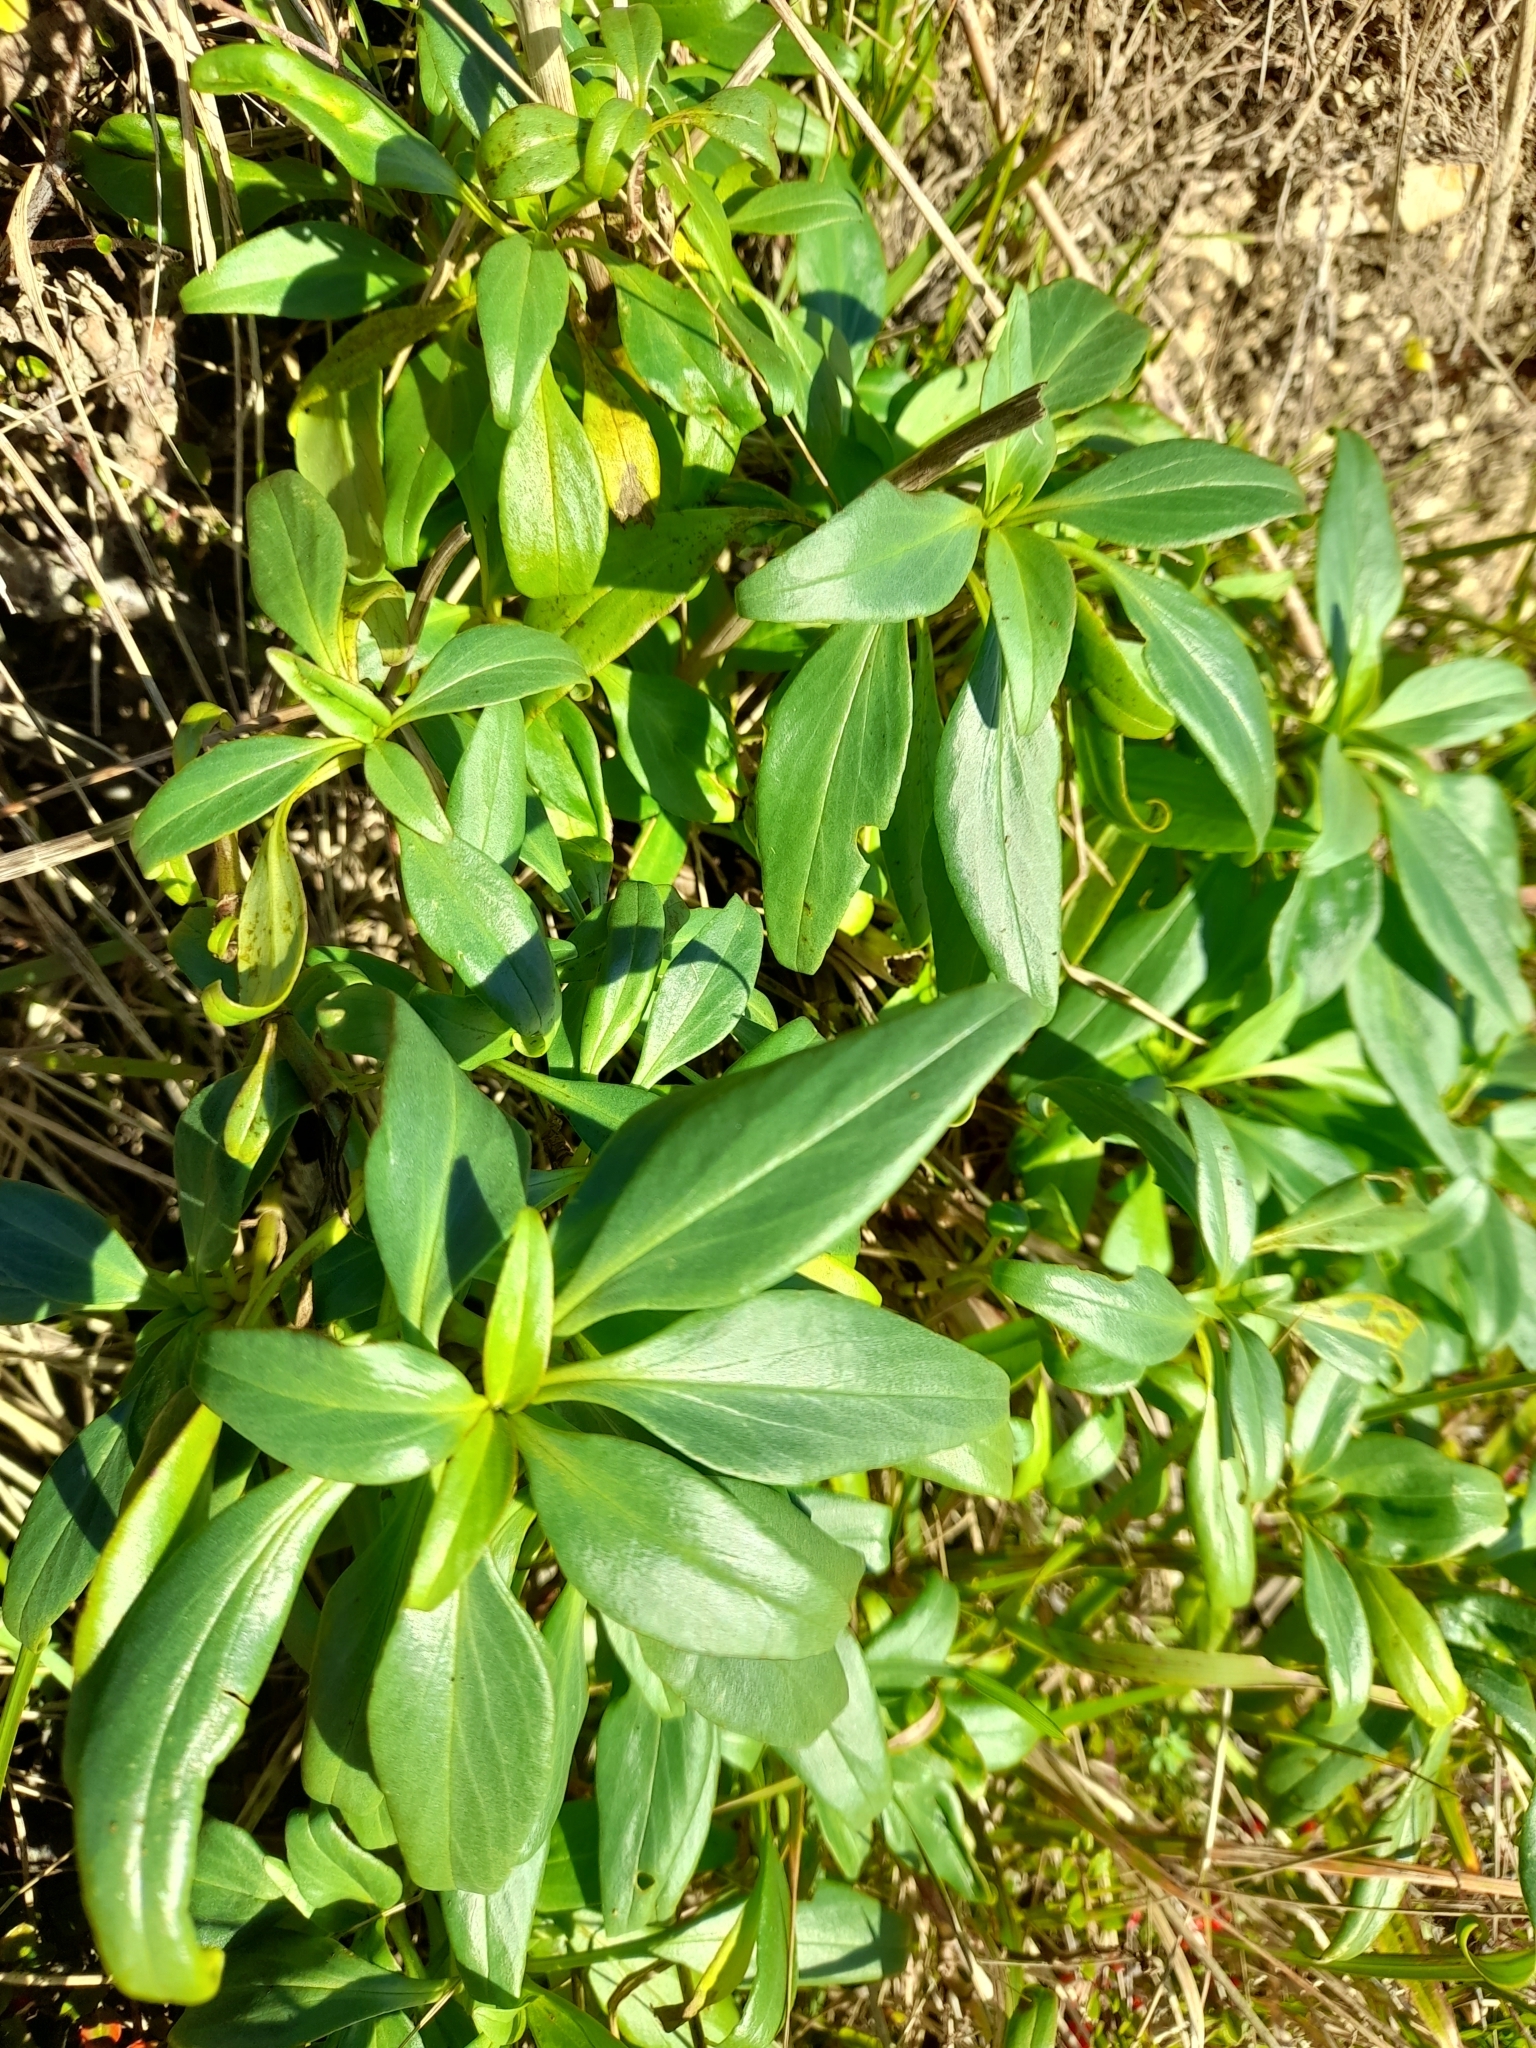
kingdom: Plantae
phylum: Tracheophyta
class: Magnoliopsida
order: Dipsacales
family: Caprifoliaceae
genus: Centranthus
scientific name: Centranthus ruber
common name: Red valerian
